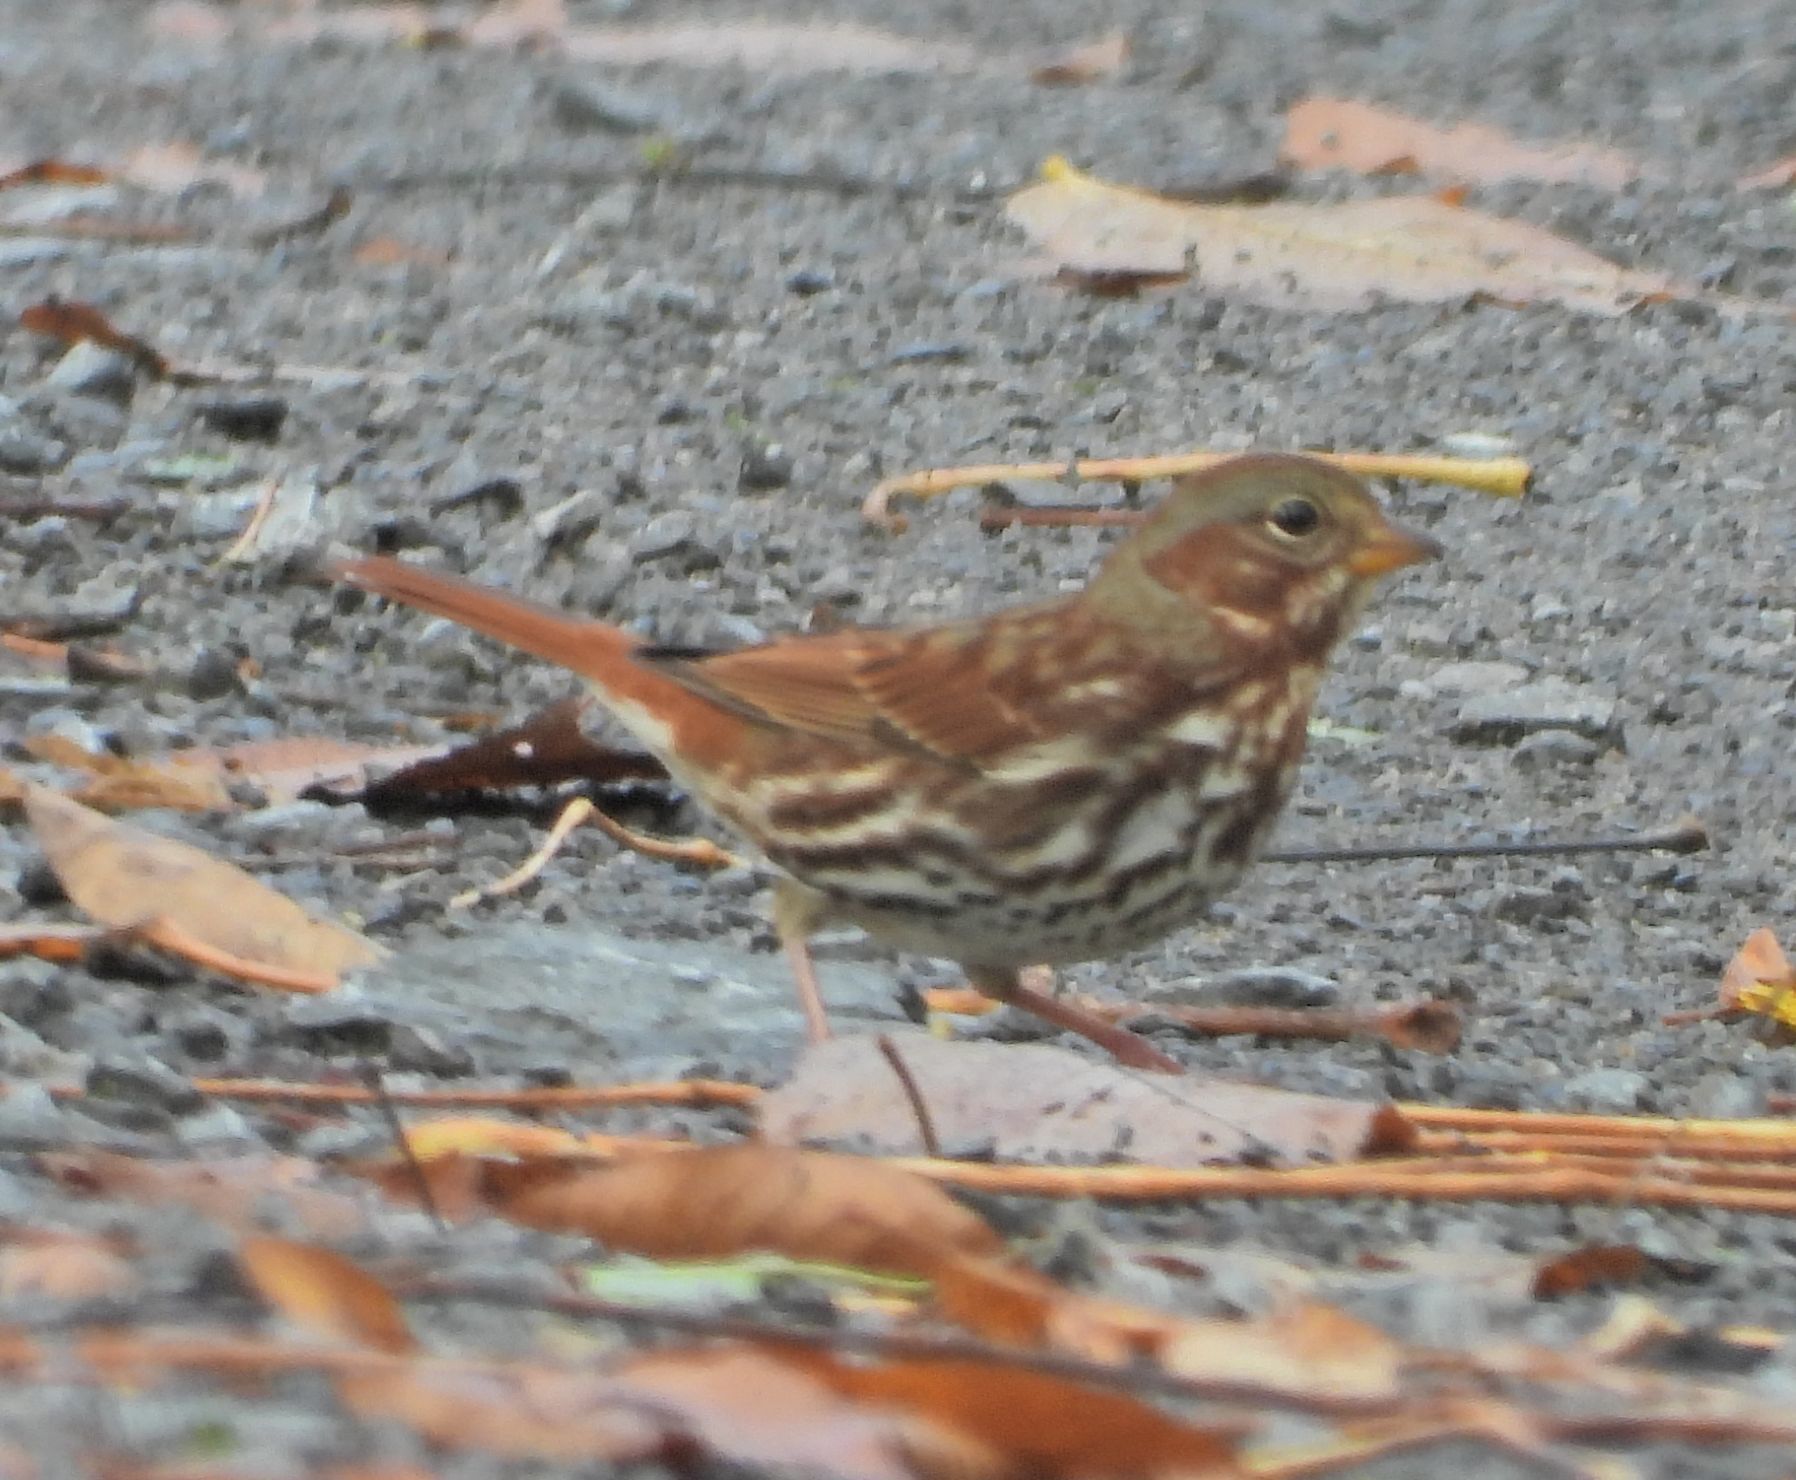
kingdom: Animalia
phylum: Chordata
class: Aves
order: Passeriformes
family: Passerellidae
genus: Passerella
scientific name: Passerella iliaca
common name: Fox sparrow
